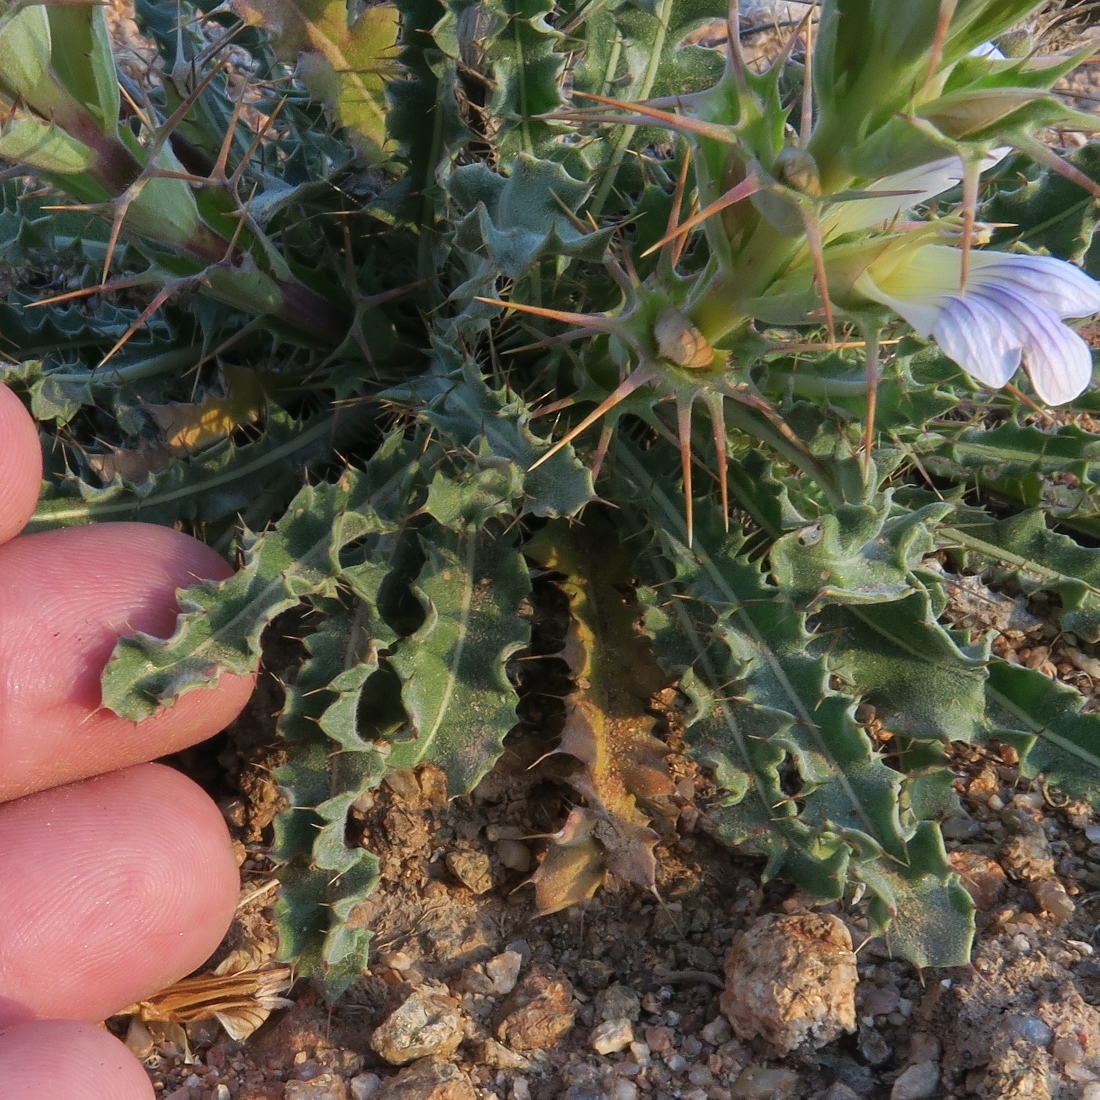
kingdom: Plantae
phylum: Tracheophyta
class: Magnoliopsida
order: Lamiales
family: Acanthaceae
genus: Acanthopsis
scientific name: Acanthopsis glabra
